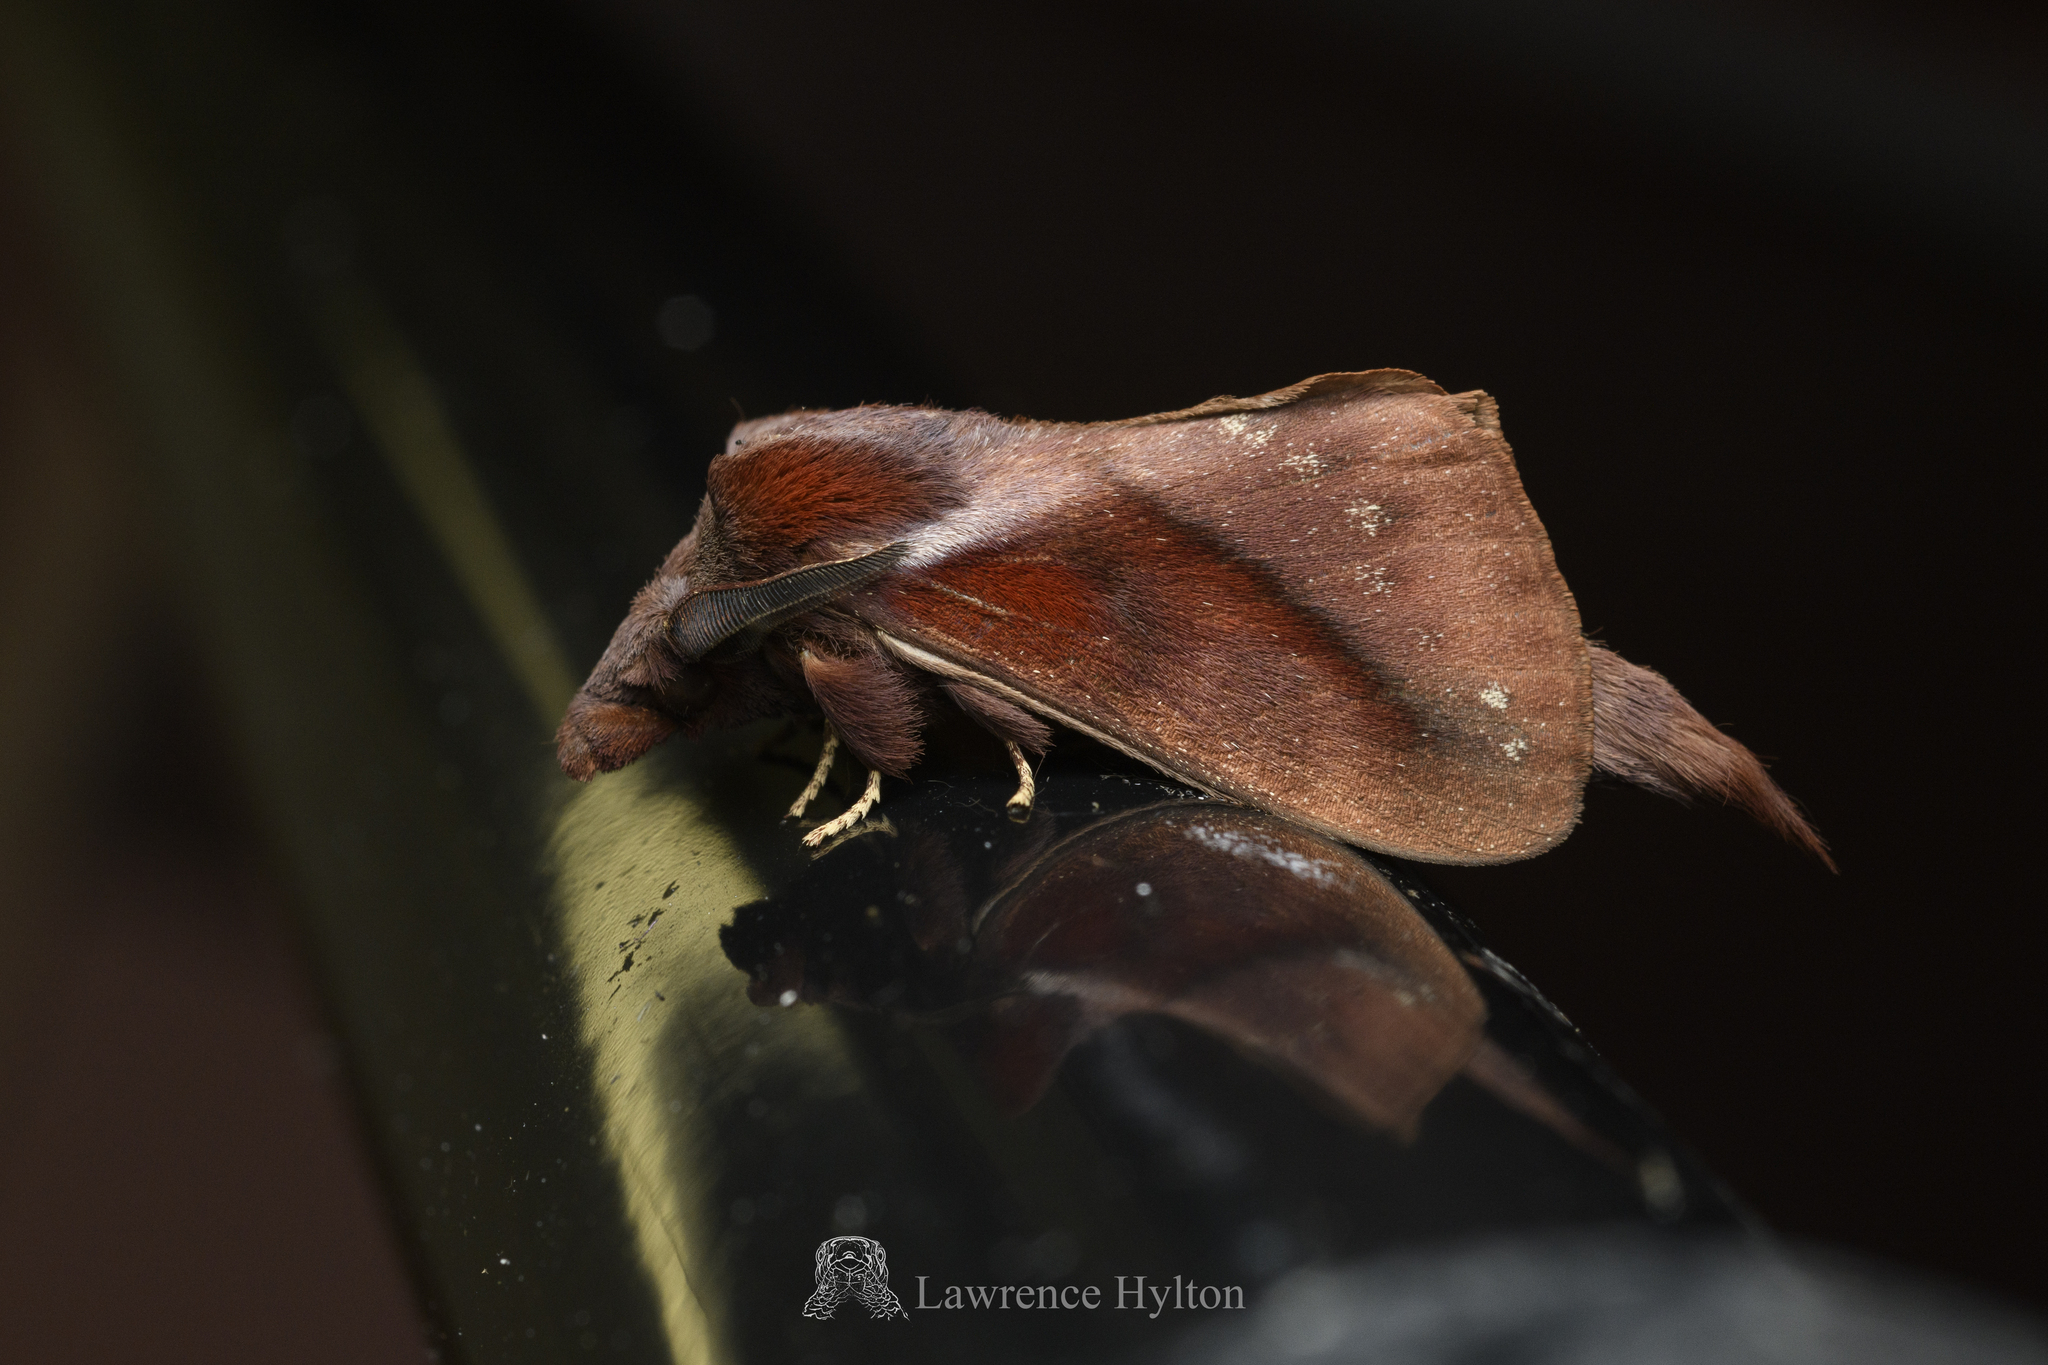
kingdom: Animalia
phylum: Arthropoda
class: Insecta
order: Lepidoptera
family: Lasiocampidae
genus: Kunugia
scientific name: Kunugia divaricata
